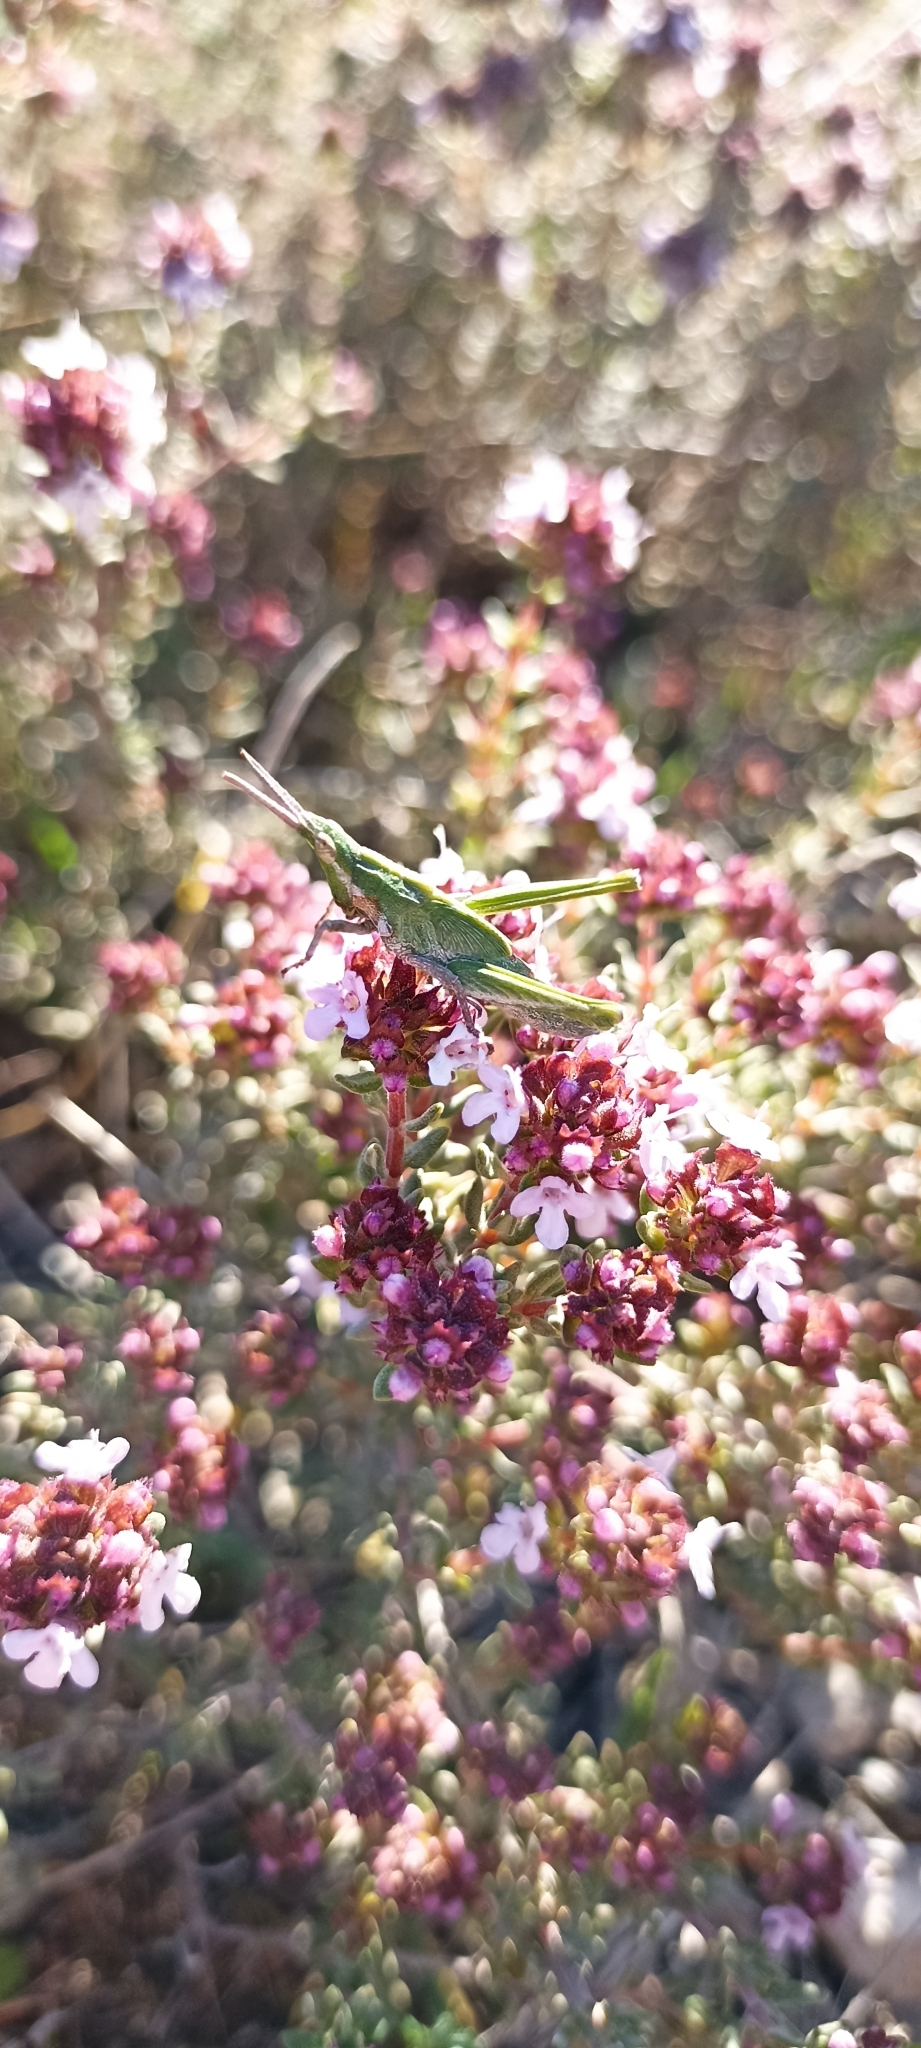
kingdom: Animalia
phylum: Arthropoda
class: Insecta
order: Orthoptera
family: Pyrgomorphidae
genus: Pyrgomorpha
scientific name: Pyrgomorpha conica
